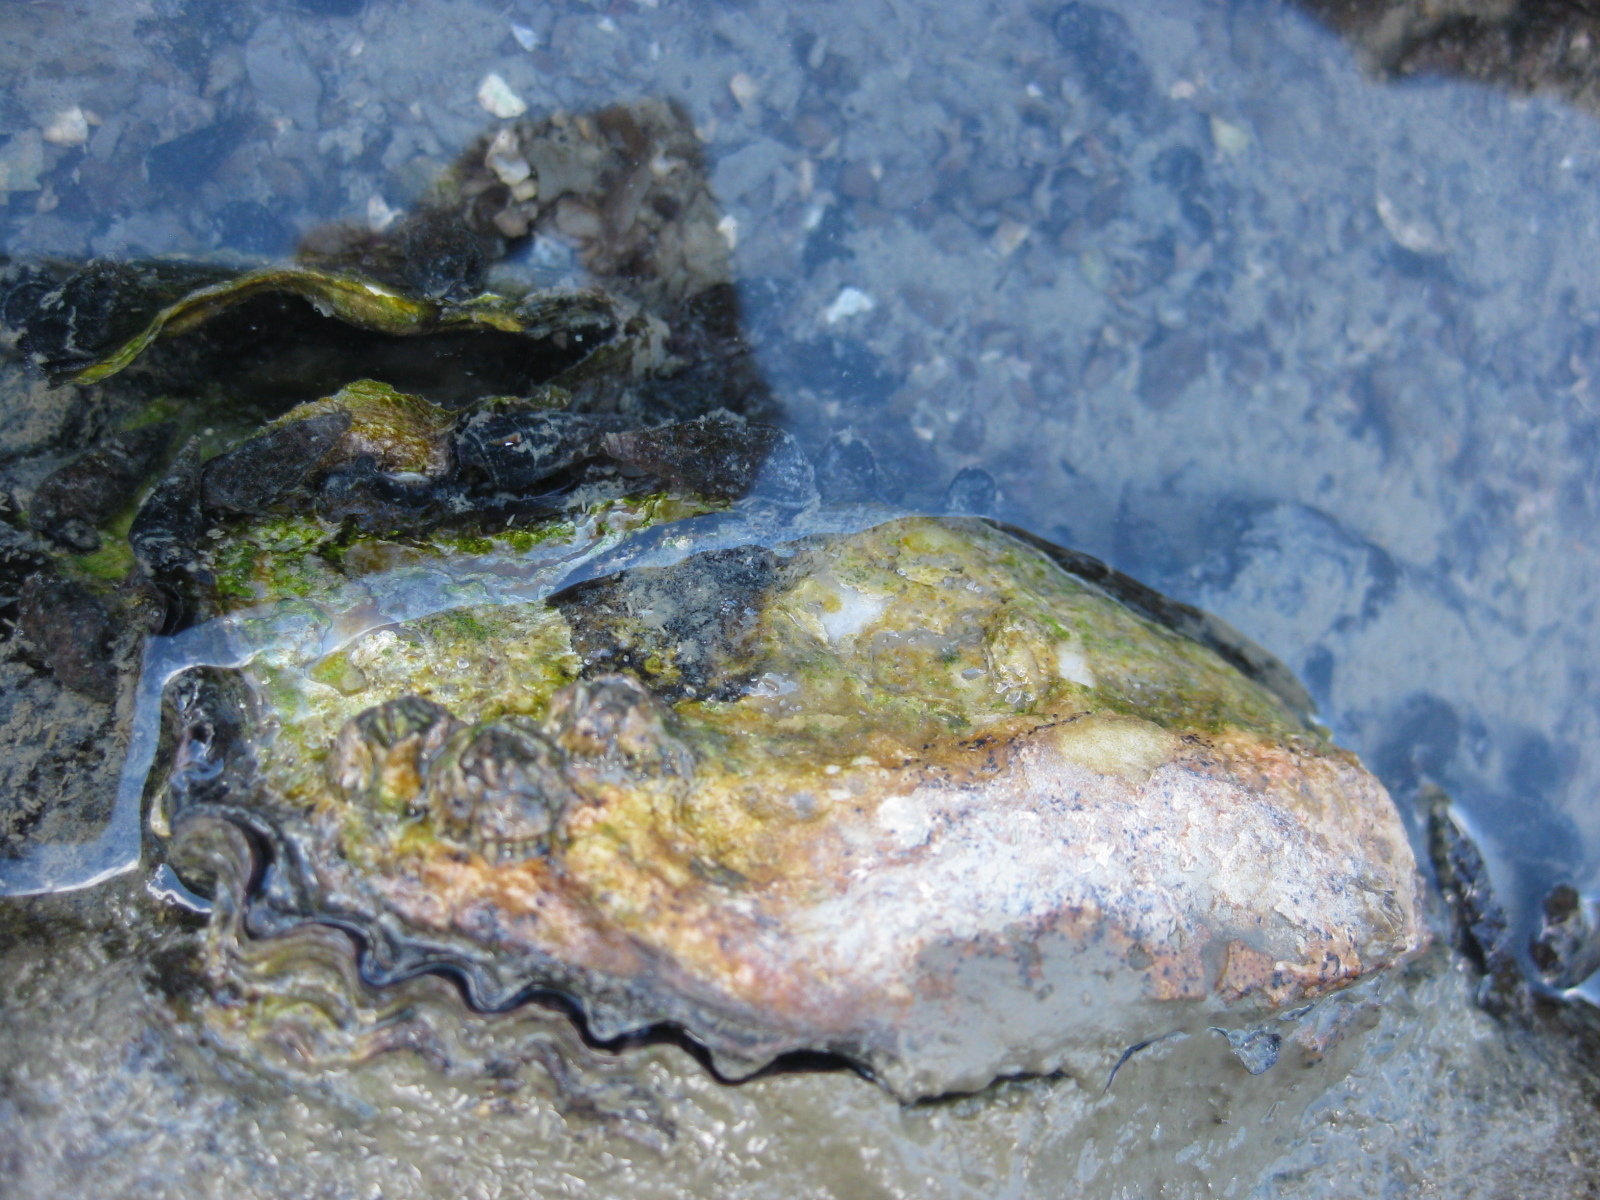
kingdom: Animalia
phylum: Mollusca
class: Bivalvia
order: Ostreida
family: Ostreidae
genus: Magallana
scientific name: Magallana gigas
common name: Pacific oyster
